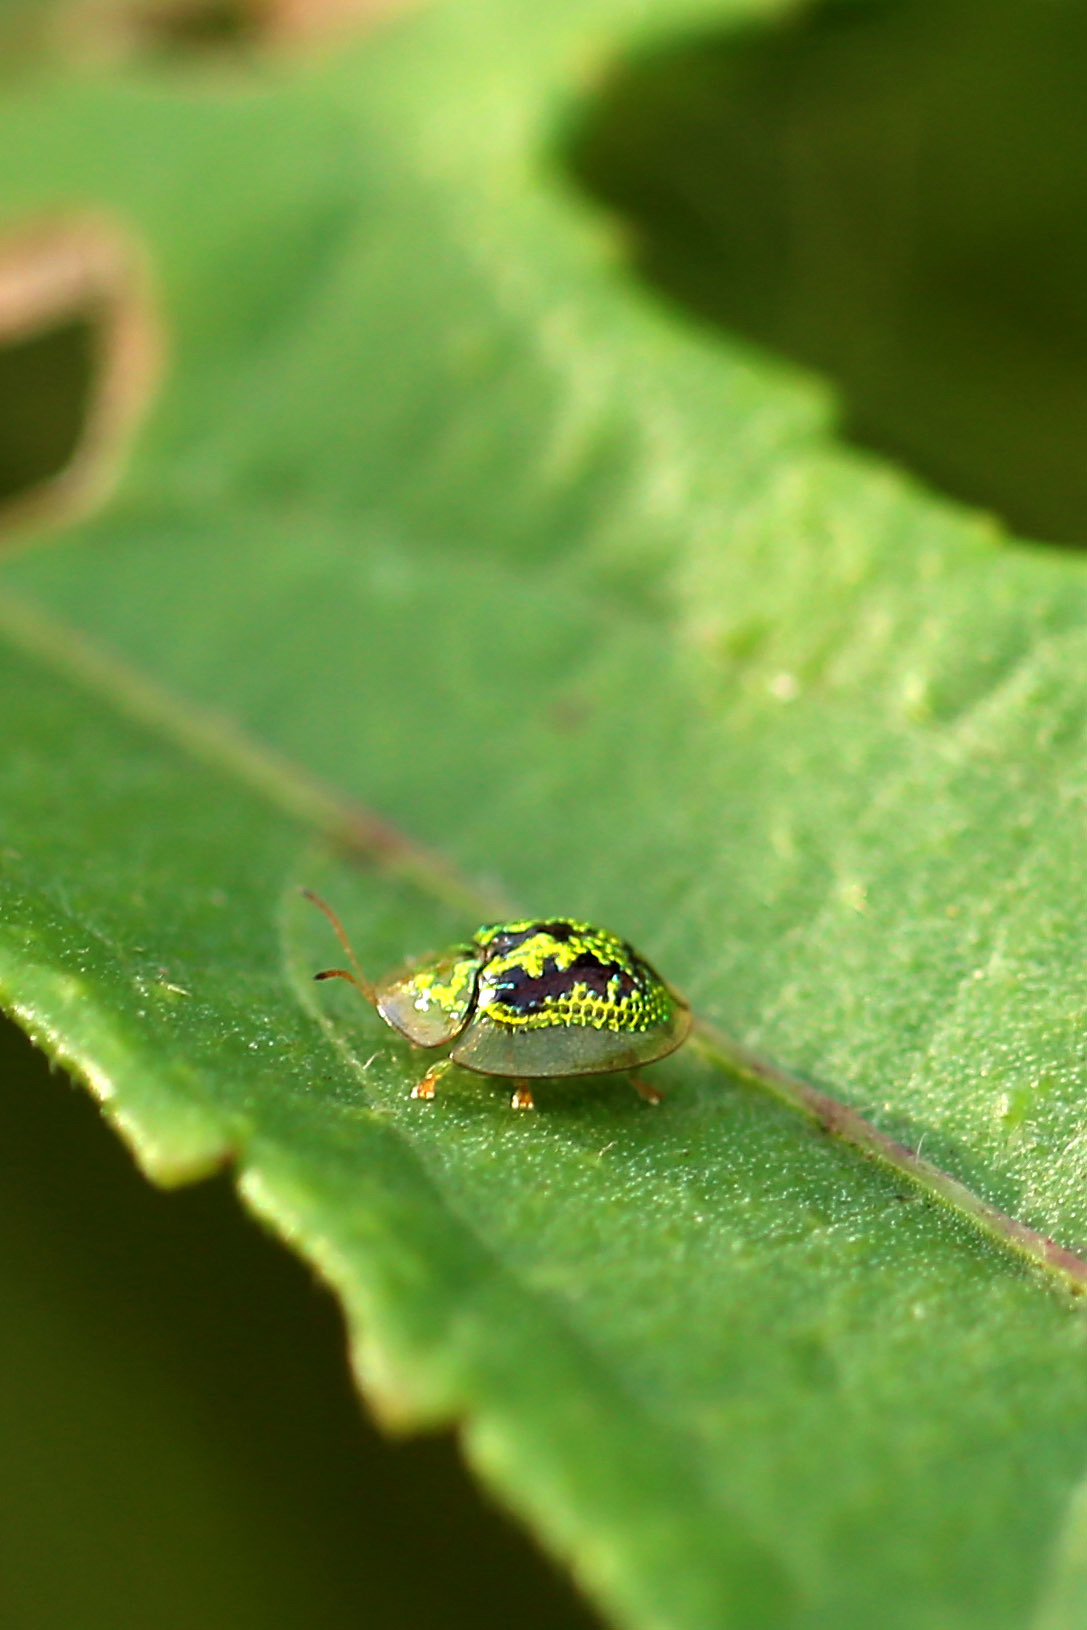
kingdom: Animalia
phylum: Arthropoda
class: Insecta
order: Coleoptera
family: Chrysomelidae
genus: Cassida
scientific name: Cassida circumdata
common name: Tortoise beetle
